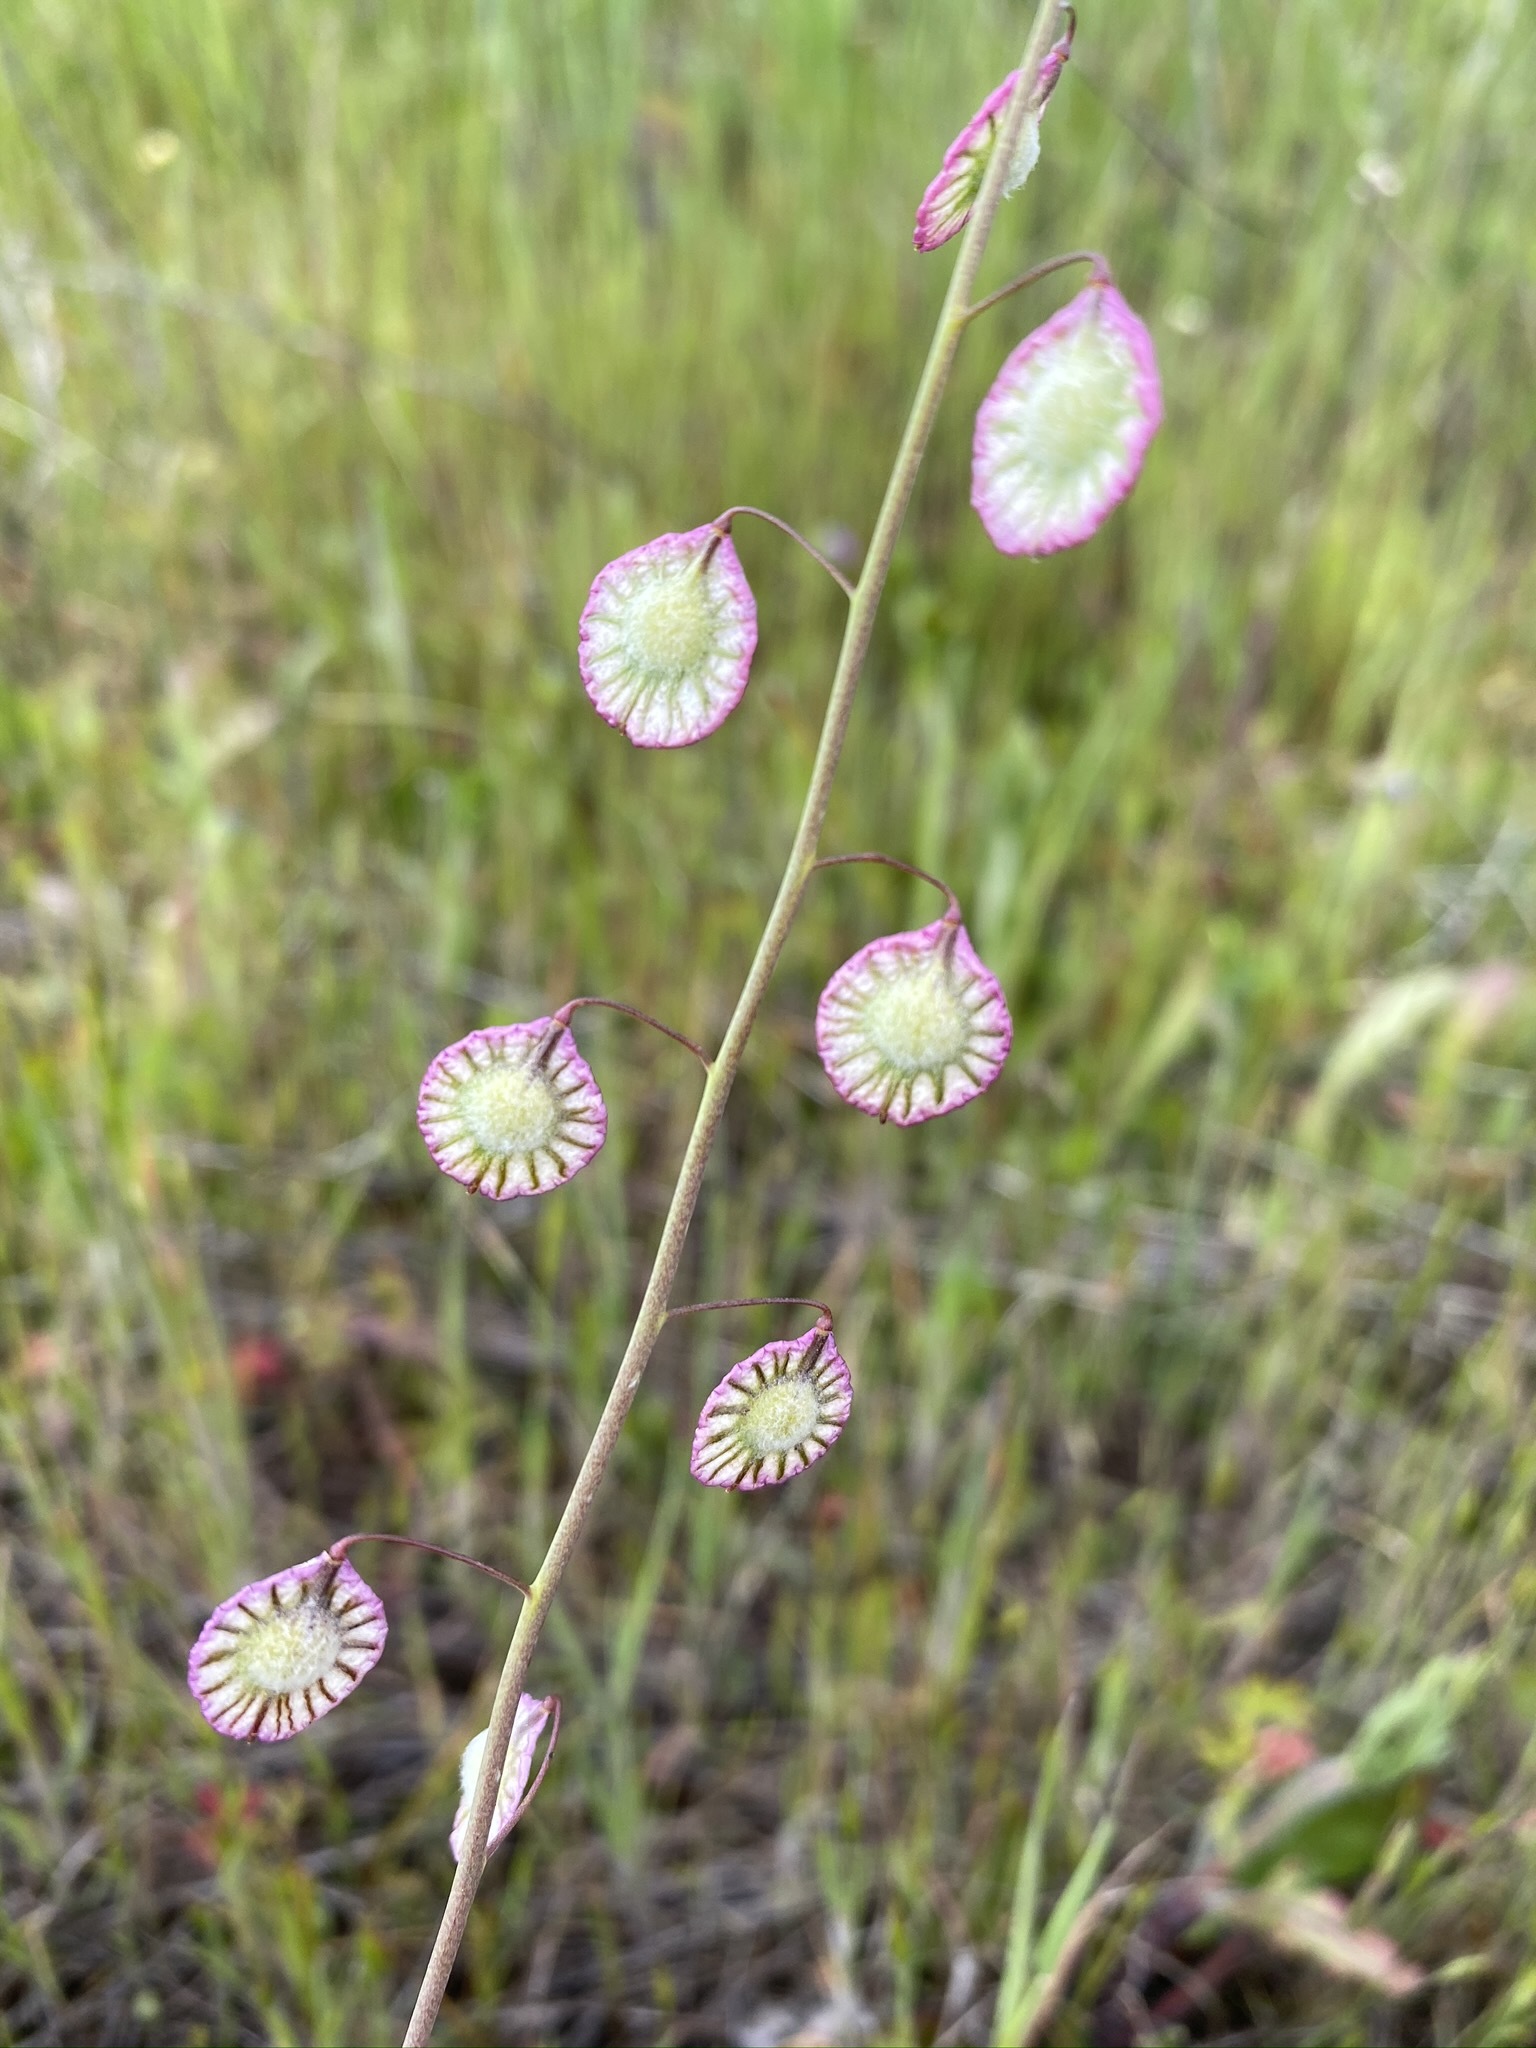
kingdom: Plantae
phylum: Tracheophyta
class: Magnoliopsida
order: Brassicales
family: Brassicaceae
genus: Thysanocarpus
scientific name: Thysanocarpus radians
